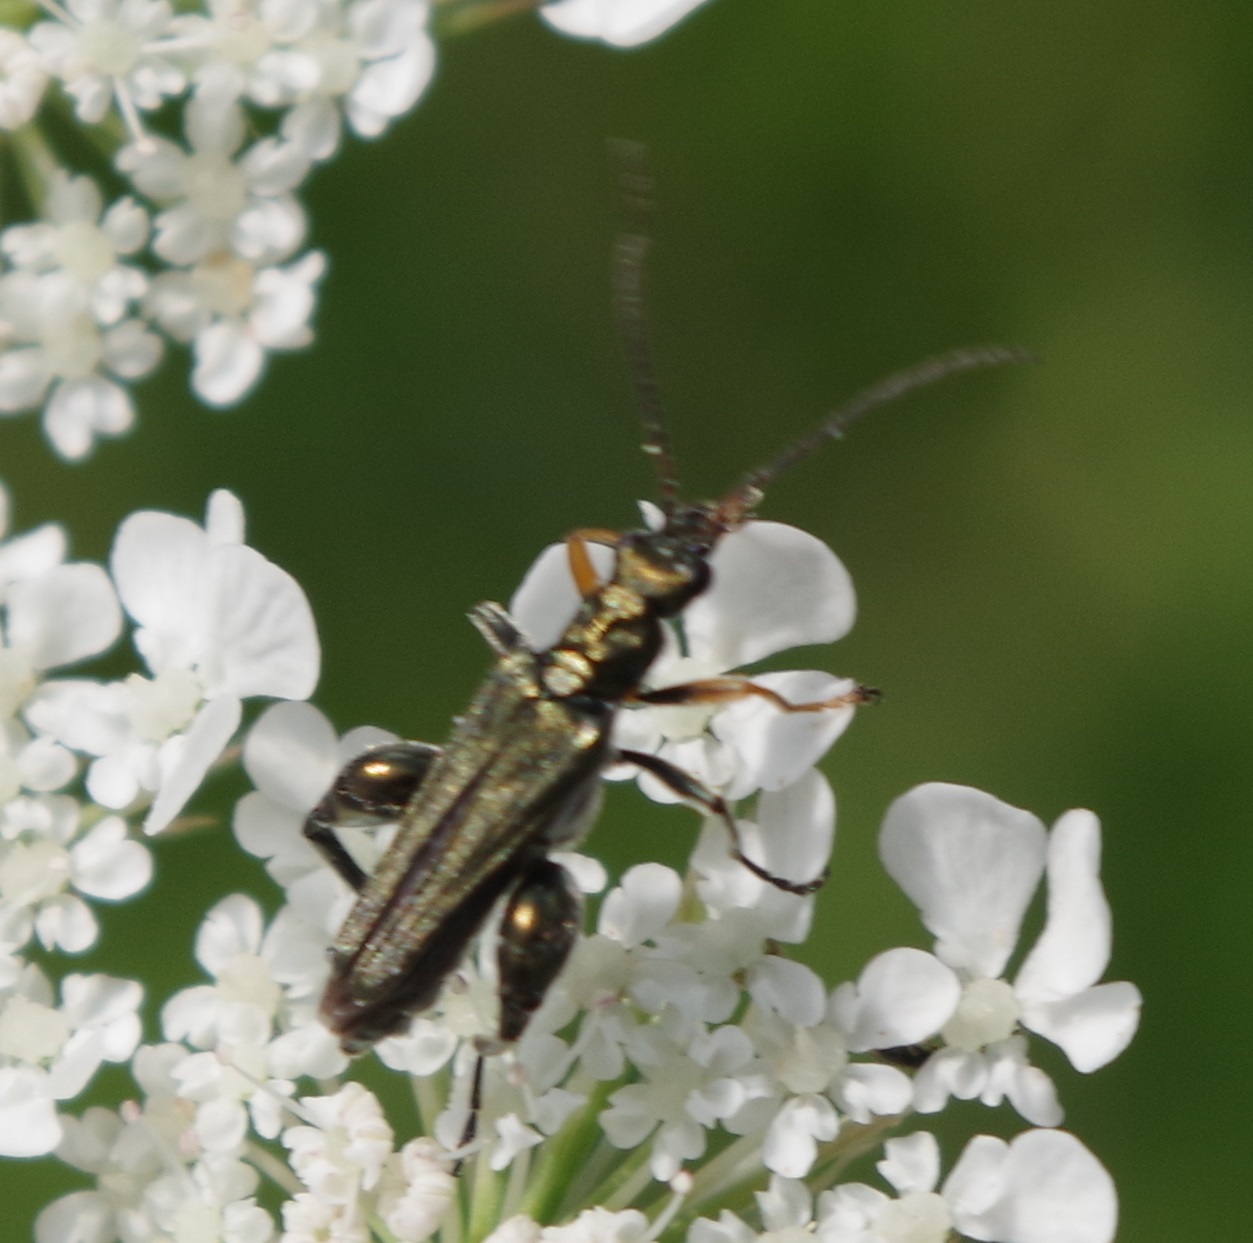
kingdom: Animalia
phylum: Arthropoda
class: Insecta
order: Coleoptera
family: Oedemeridae
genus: Oedemera
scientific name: Oedemera flavipes
